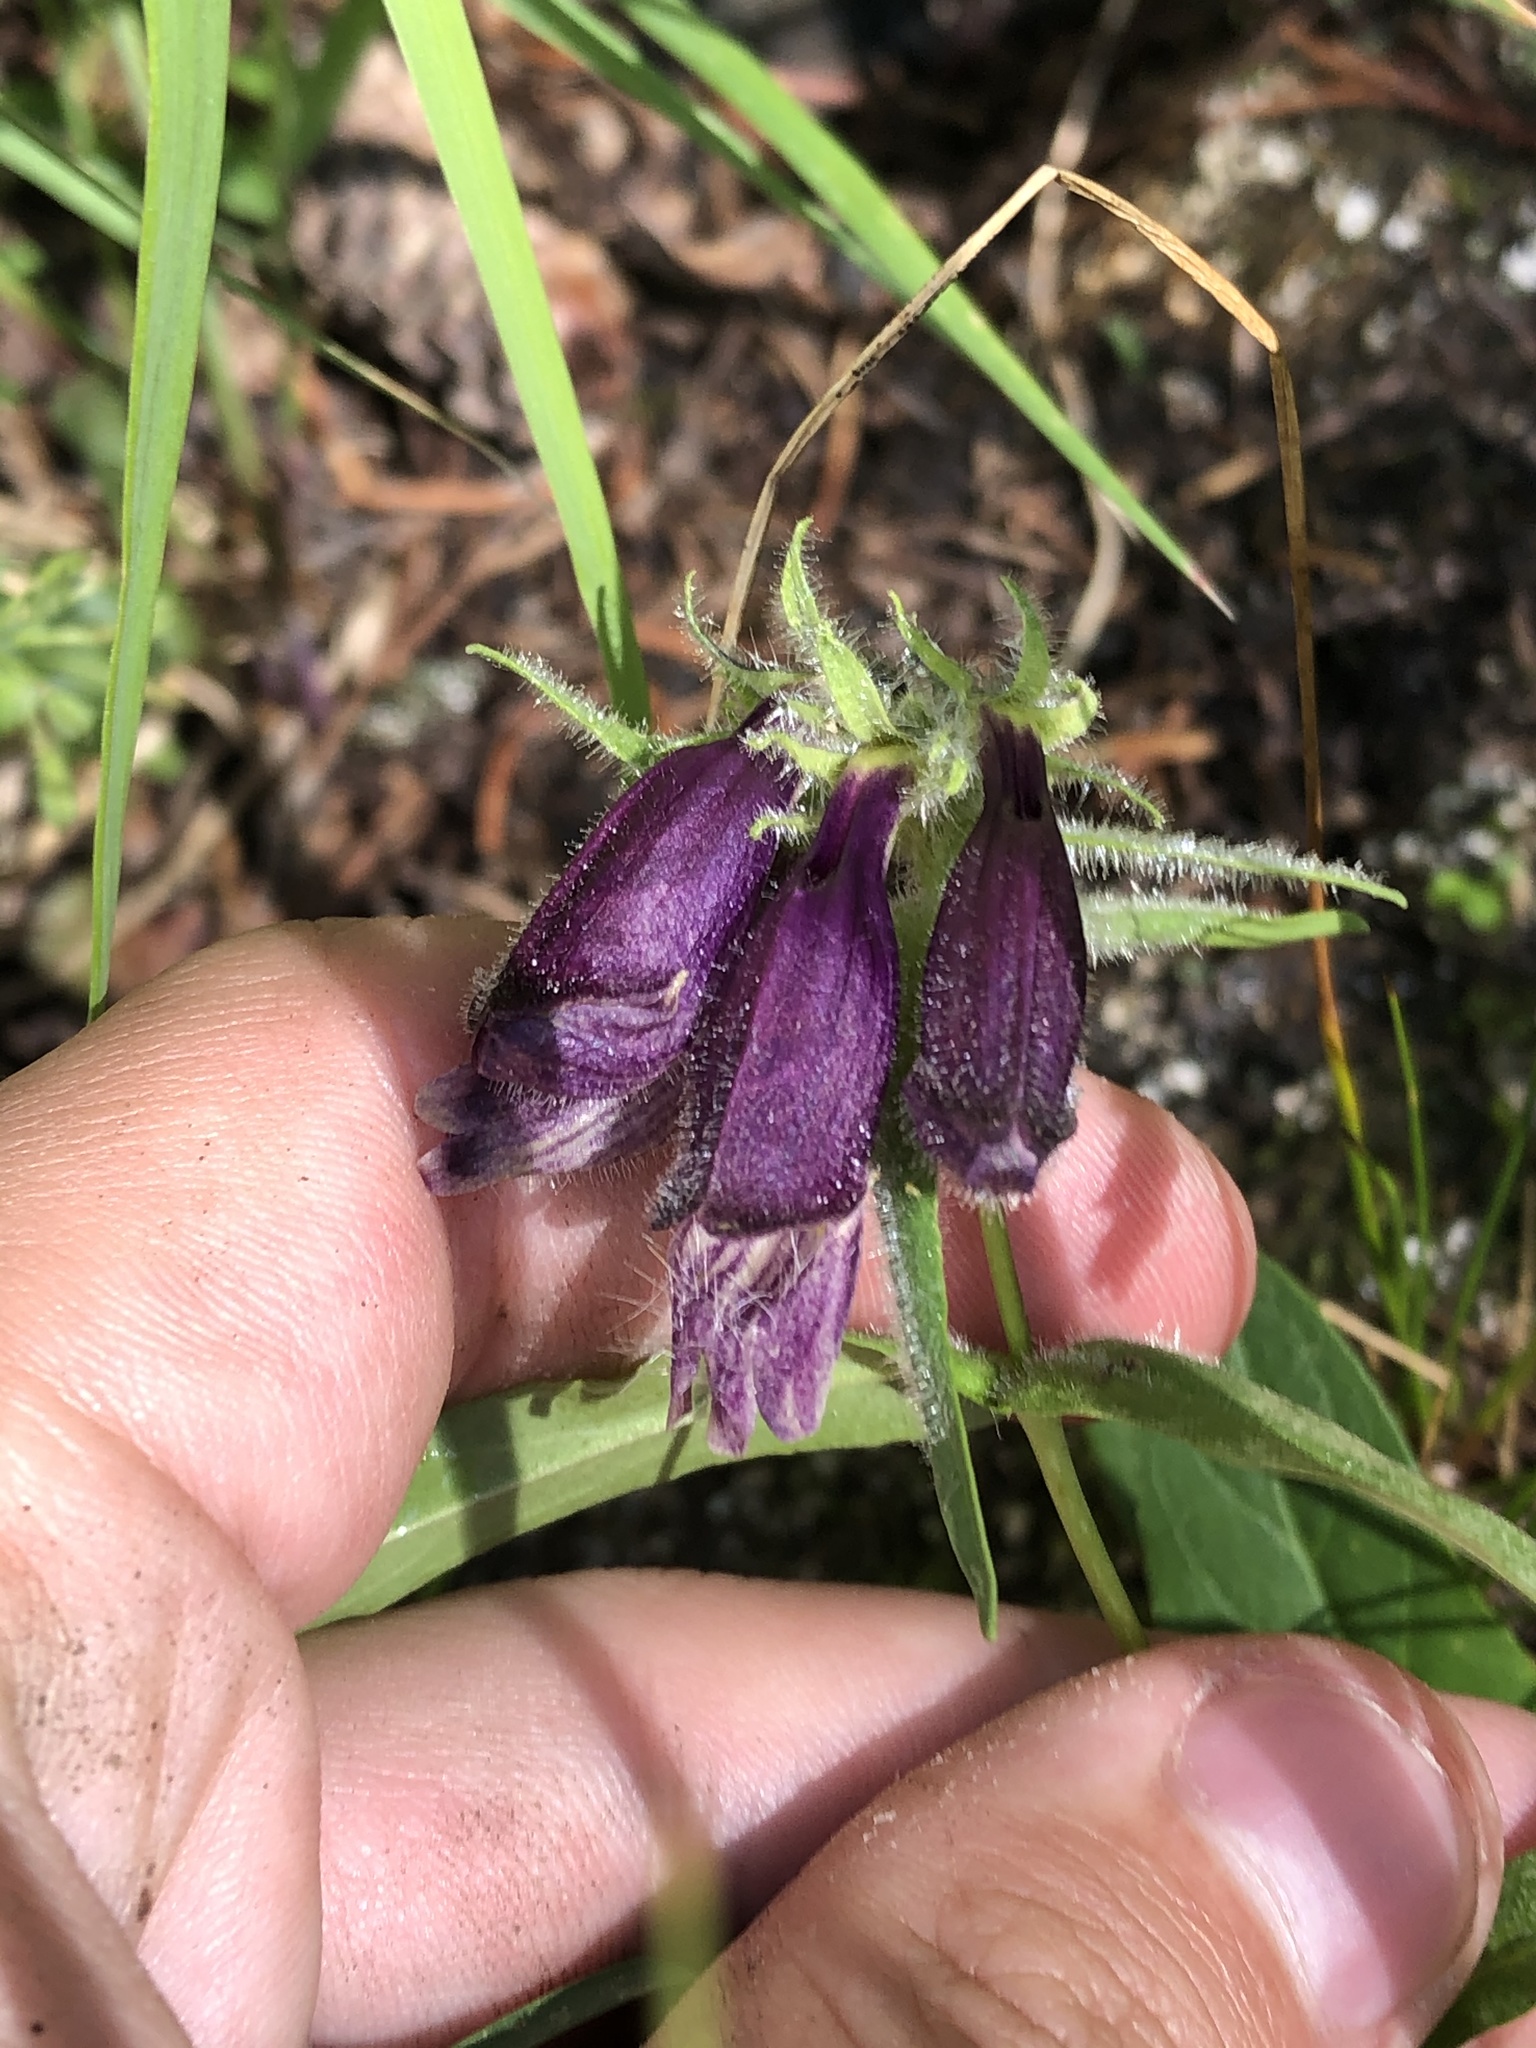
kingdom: Plantae
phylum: Tracheophyta
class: Magnoliopsida
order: Lamiales
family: Plantaginaceae
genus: Penstemon
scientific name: Penstemon whippleanus
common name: Whipple's penstemon
